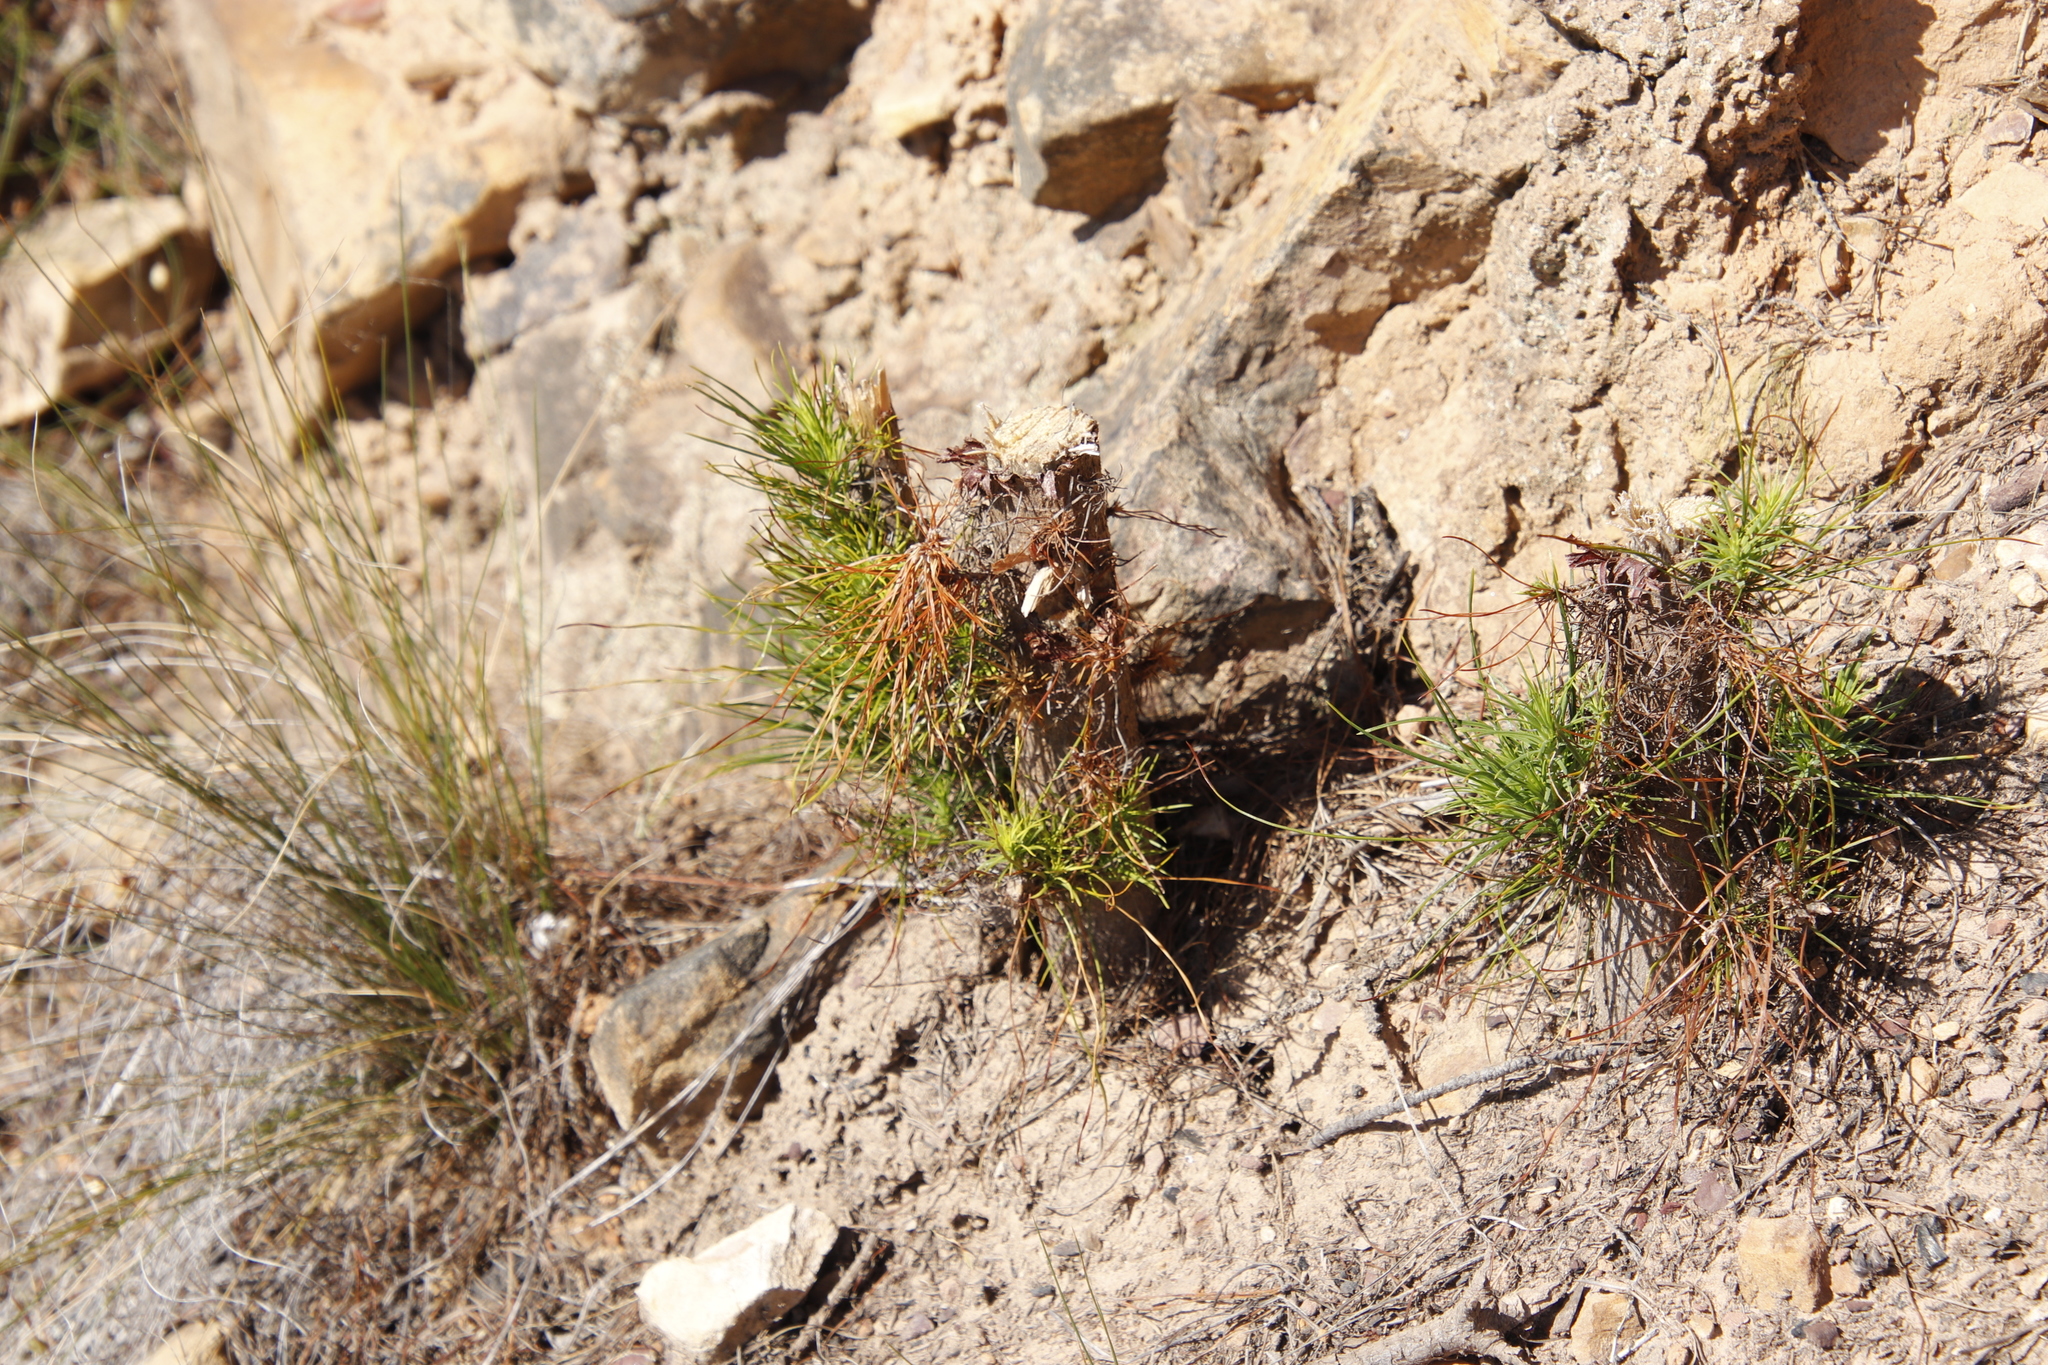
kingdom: Plantae
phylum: Tracheophyta
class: Pinopsida
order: Pinales
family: Pinaceae
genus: Pinus
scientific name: Pinus radiata
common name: Monterey pine
